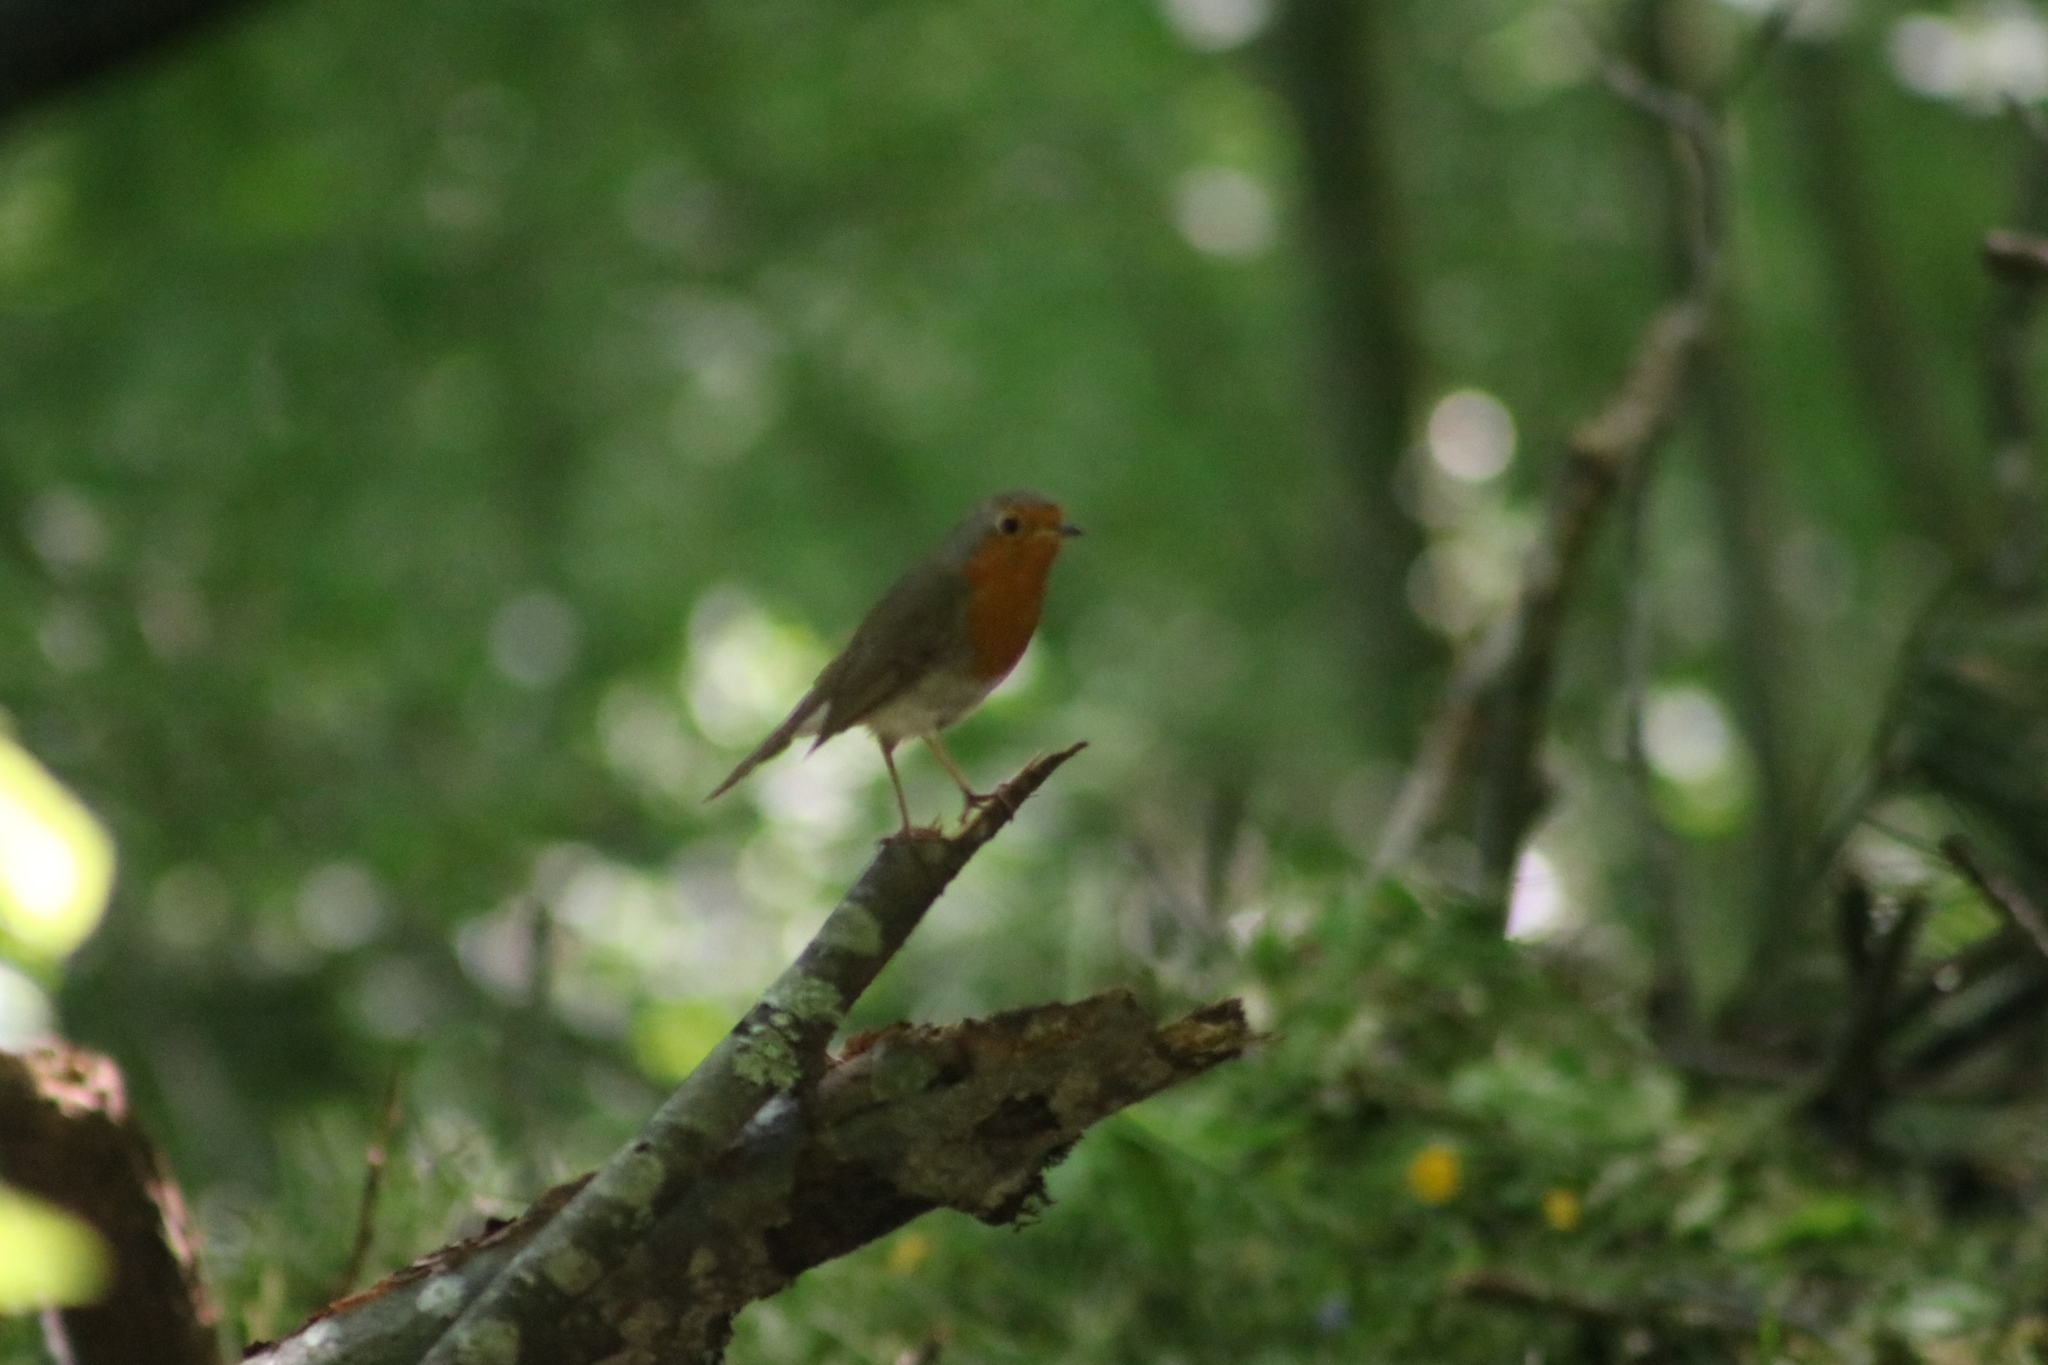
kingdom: Animalia
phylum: Chordata
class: Aves
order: Passeriformes
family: Muscicapidae
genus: Erithacus
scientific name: Erithacus rubecula
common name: European robin
